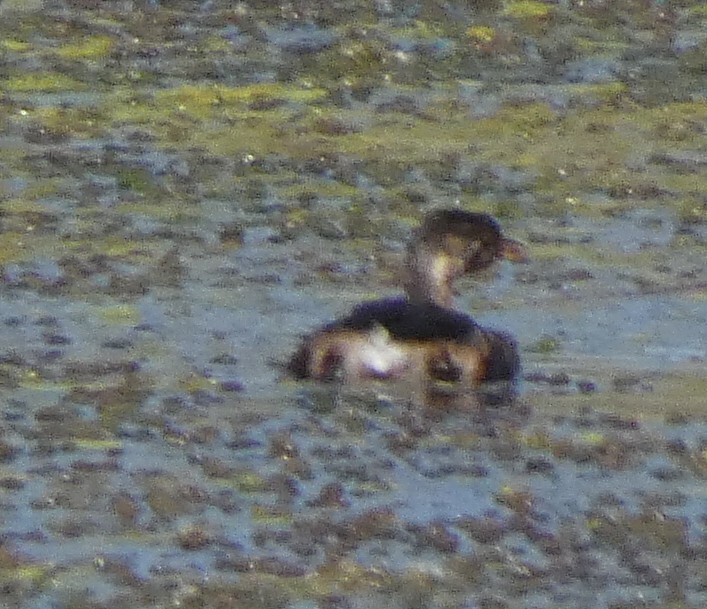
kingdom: Animalia
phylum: Chordata
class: Aves
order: Podicipediformes
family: Podicipedidae
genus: Podilymbus
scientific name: Podilymbus podiceps
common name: Pied-billed grebe
